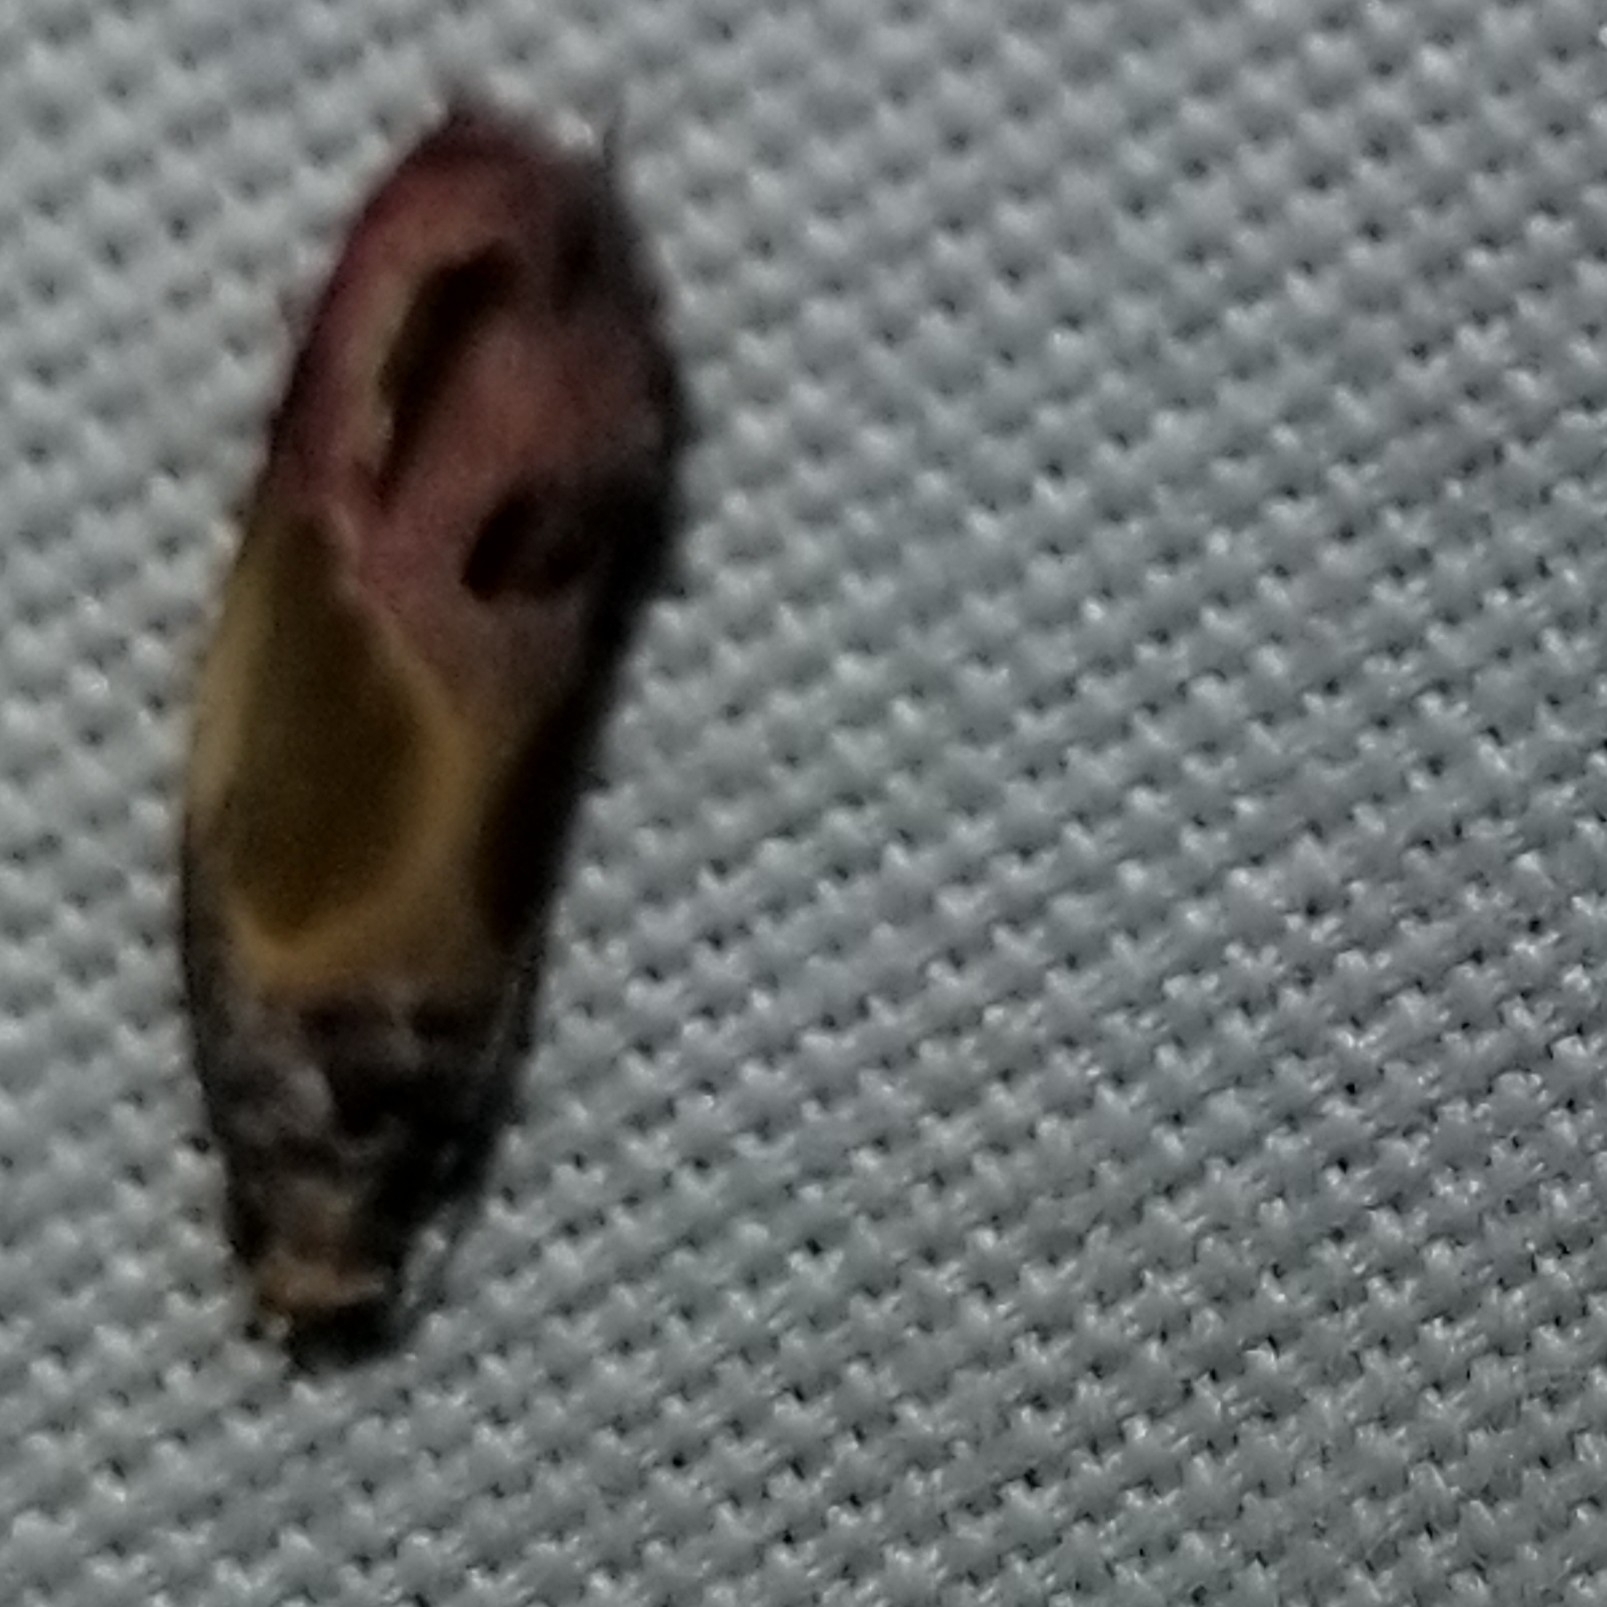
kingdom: Animalia
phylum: Arthropoda
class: Insecta
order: Lepidoptera
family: Tortricidae
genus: Eumarozia
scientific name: Eumarozia malachitana
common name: Sculptured moth
